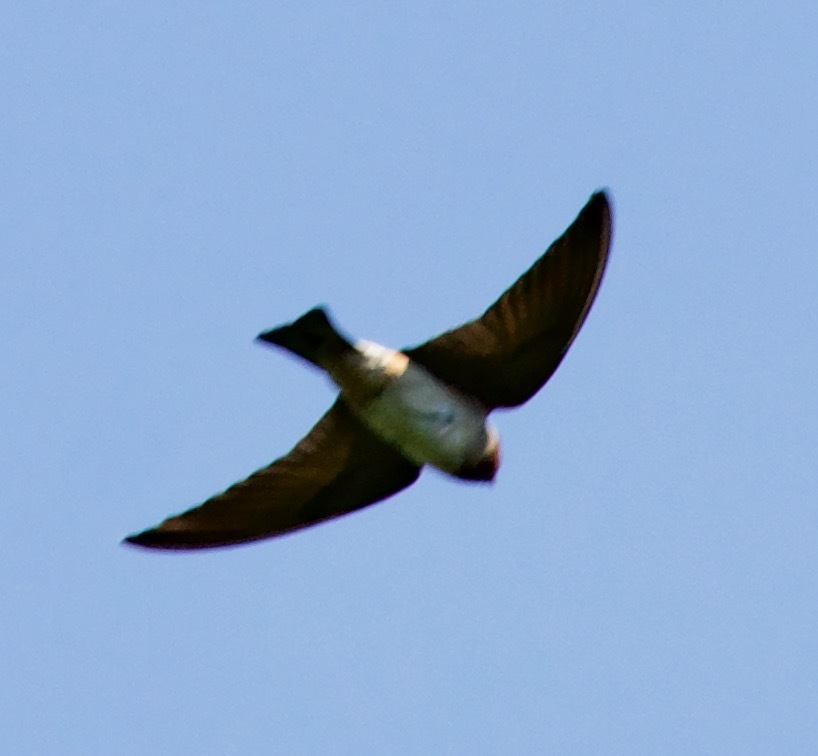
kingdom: Animalia
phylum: Chordata
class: Aves
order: Passeriformes
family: Hirundinidae
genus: Petrochelidon
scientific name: Petrochelidon pyrrhonota
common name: American cliff swallow
